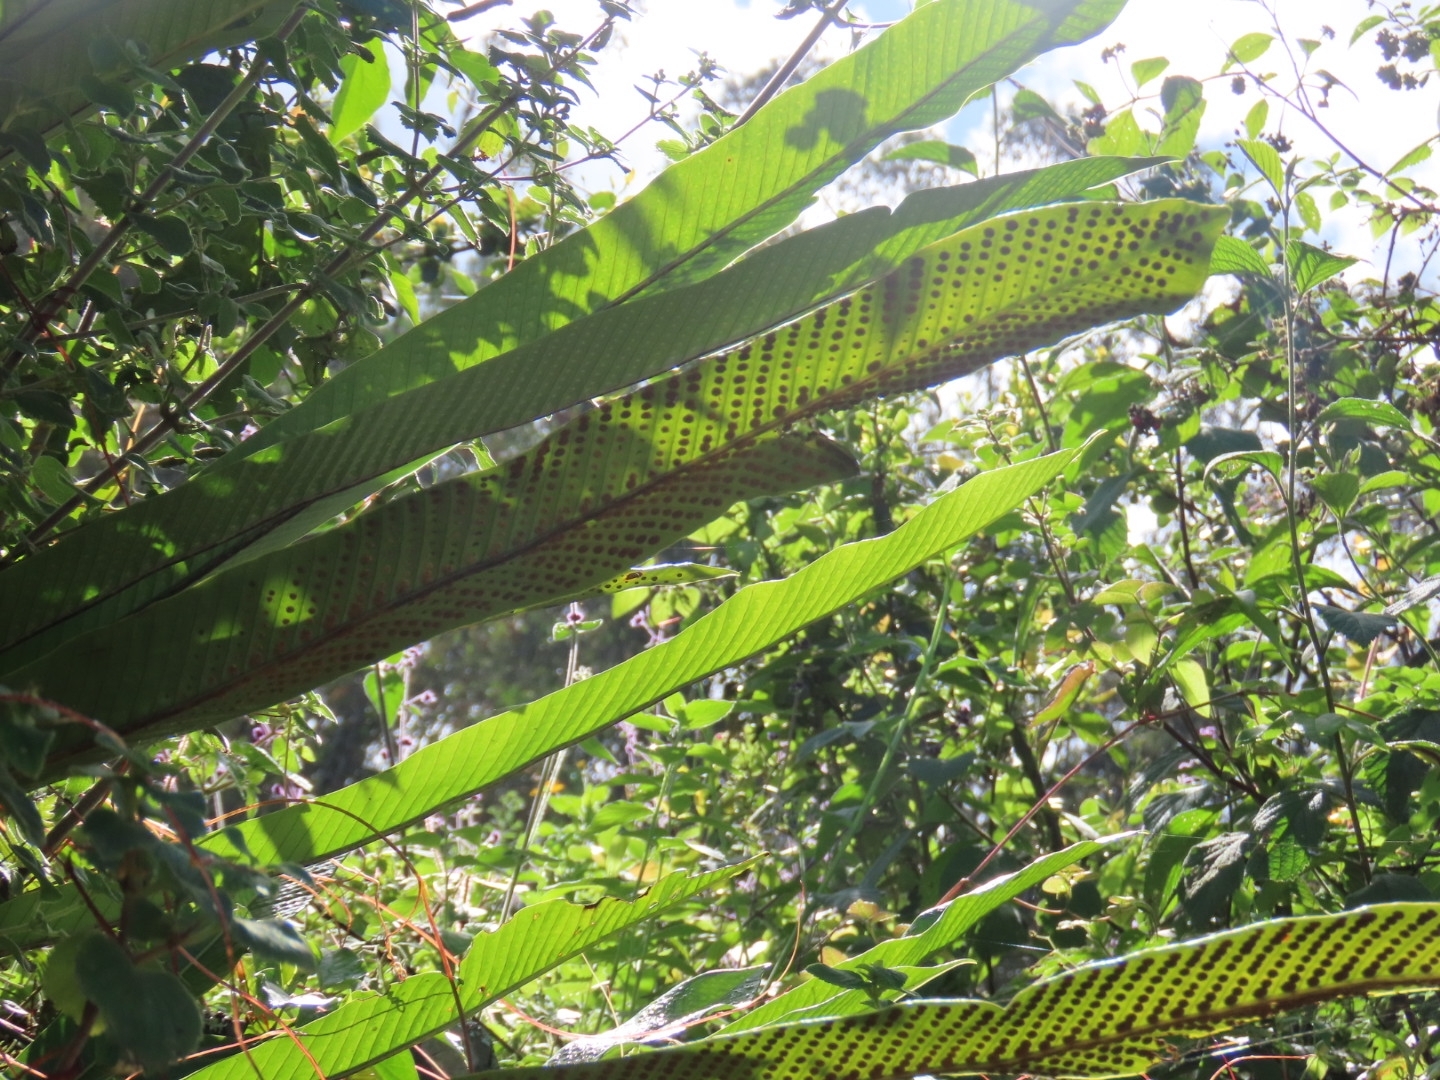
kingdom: Plantae
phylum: Tracheophyta
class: Polypodiopsida
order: Polypodiales
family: Polypodiaceae
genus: Niphidium
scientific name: Niphidium crassifolium
